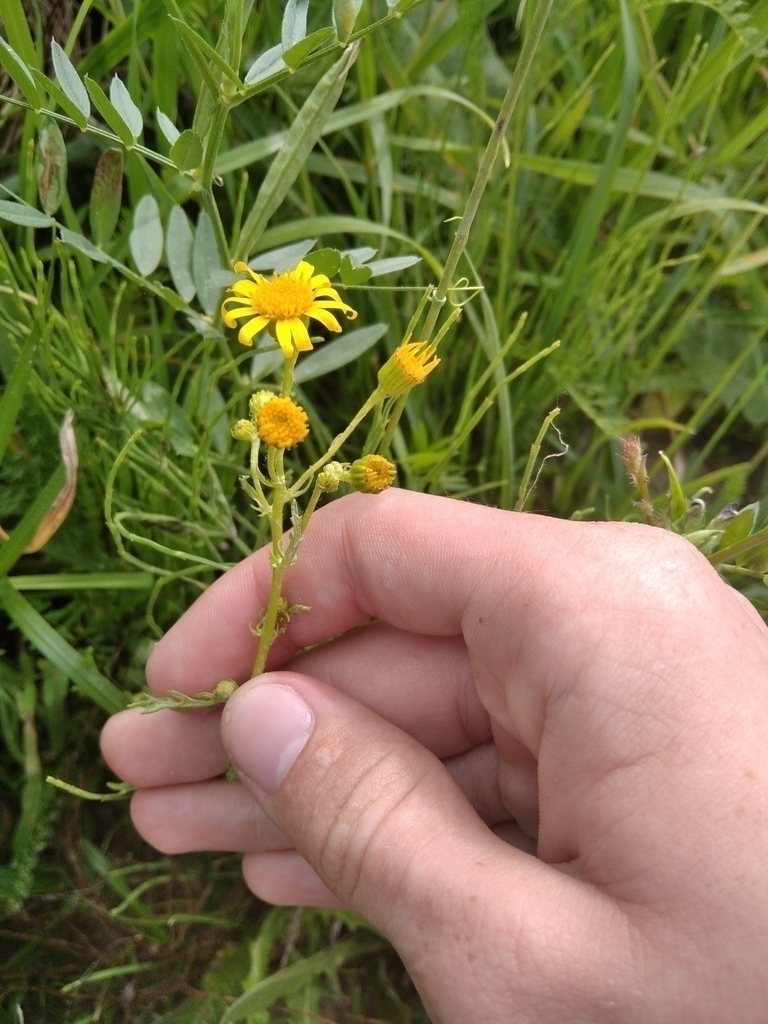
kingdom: Plantae
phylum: Tracheophyta
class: Magnoliopsida
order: Asterales
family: Asteraceae
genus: Senecio
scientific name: Senecio vernalis
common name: Eastern groundsel
